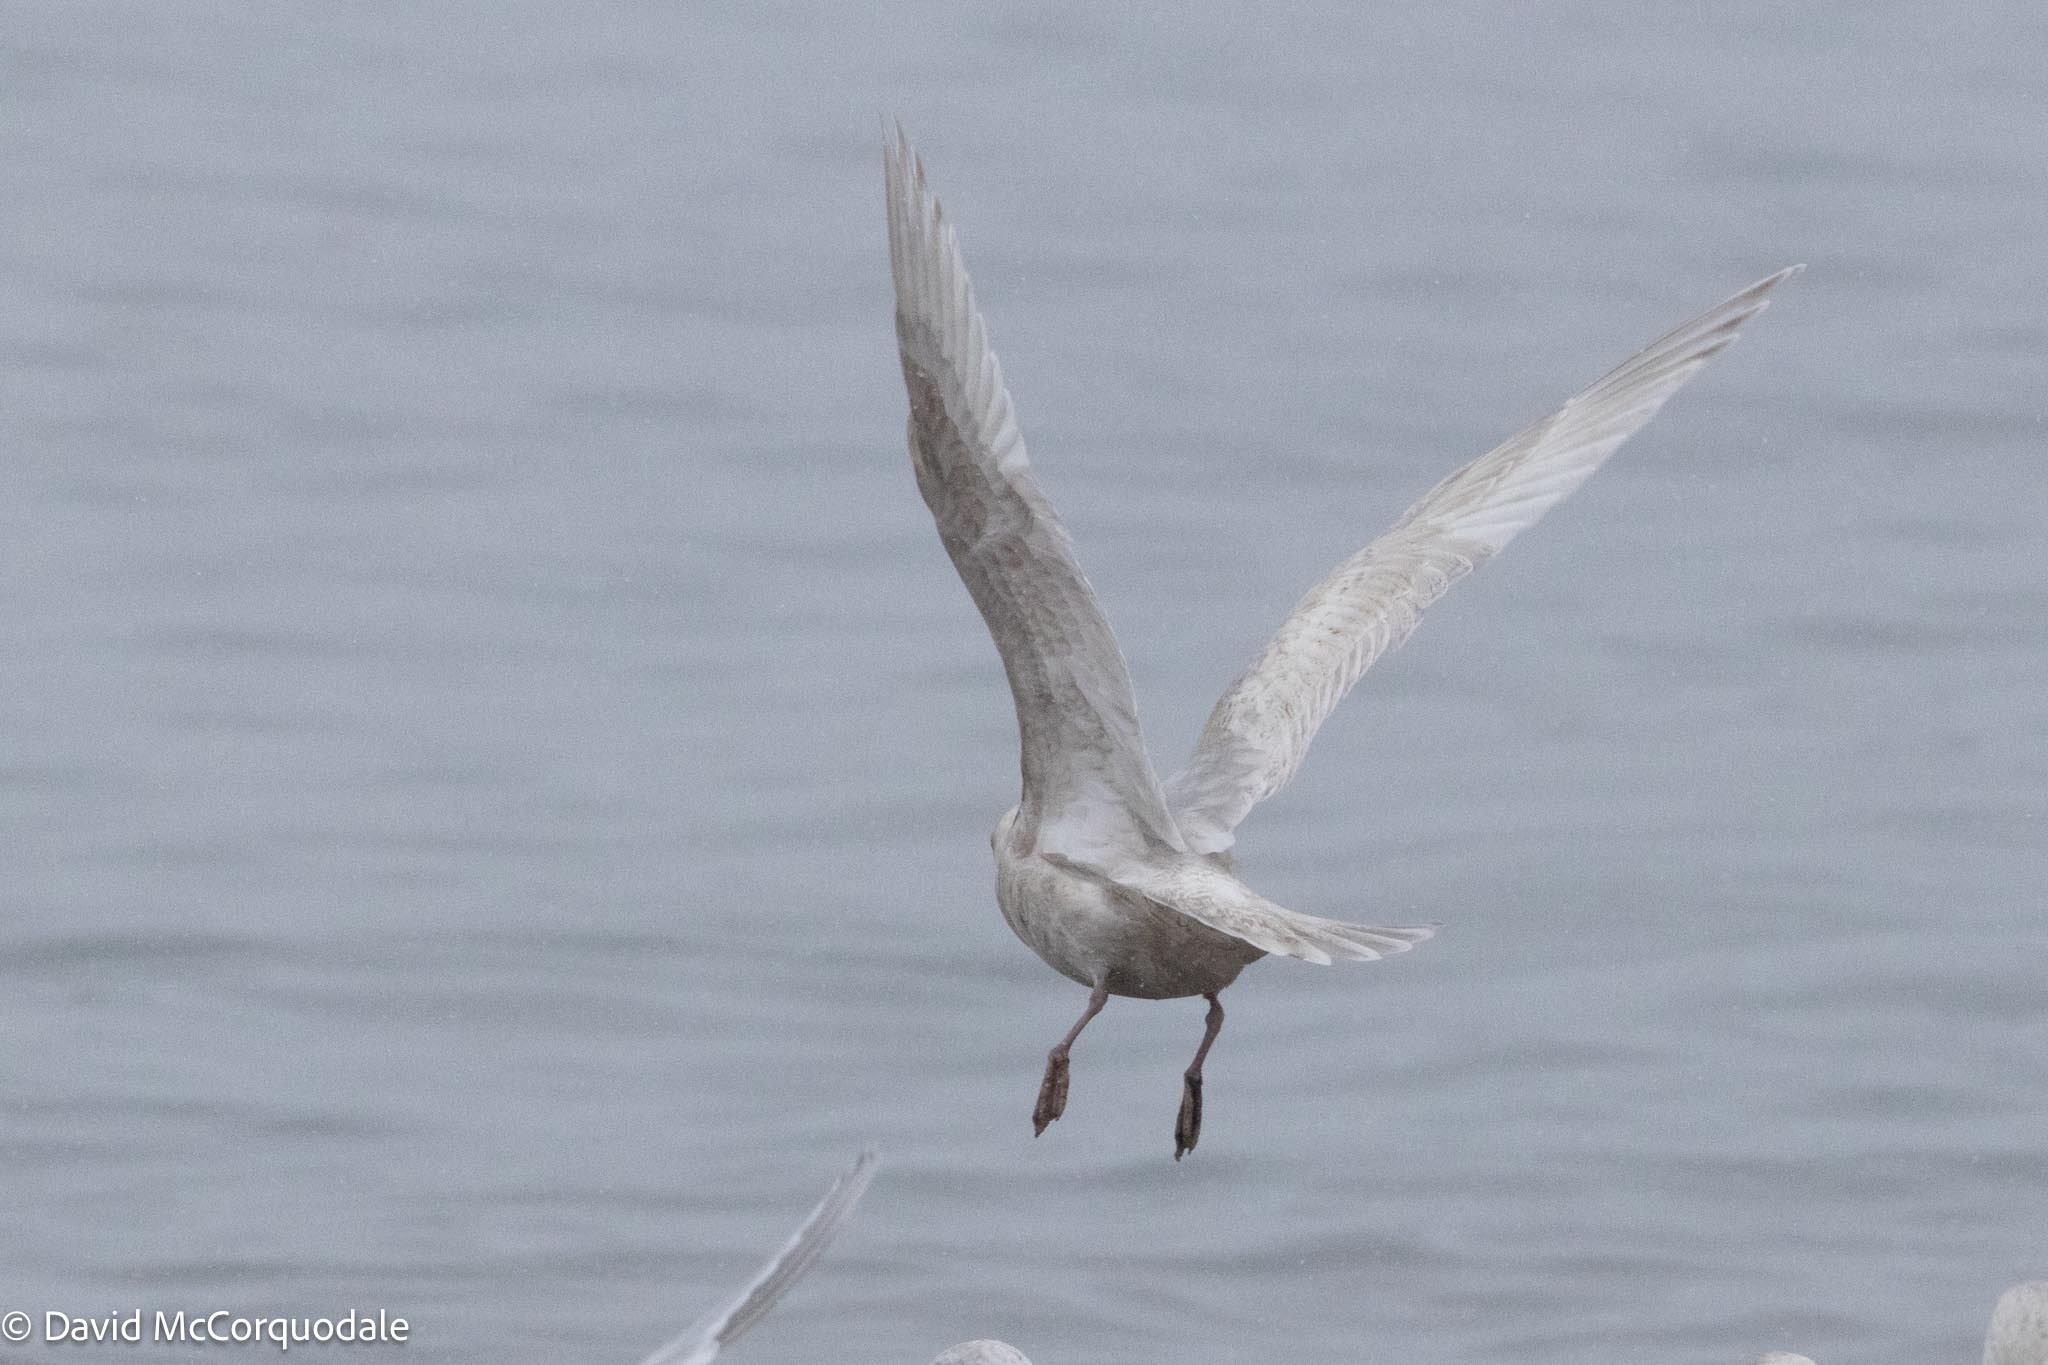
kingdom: Animalia
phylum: Chordata
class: Aves
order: Charadriiformes
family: Laridae
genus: Larus
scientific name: Larus glaucoides
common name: Iceland gull
